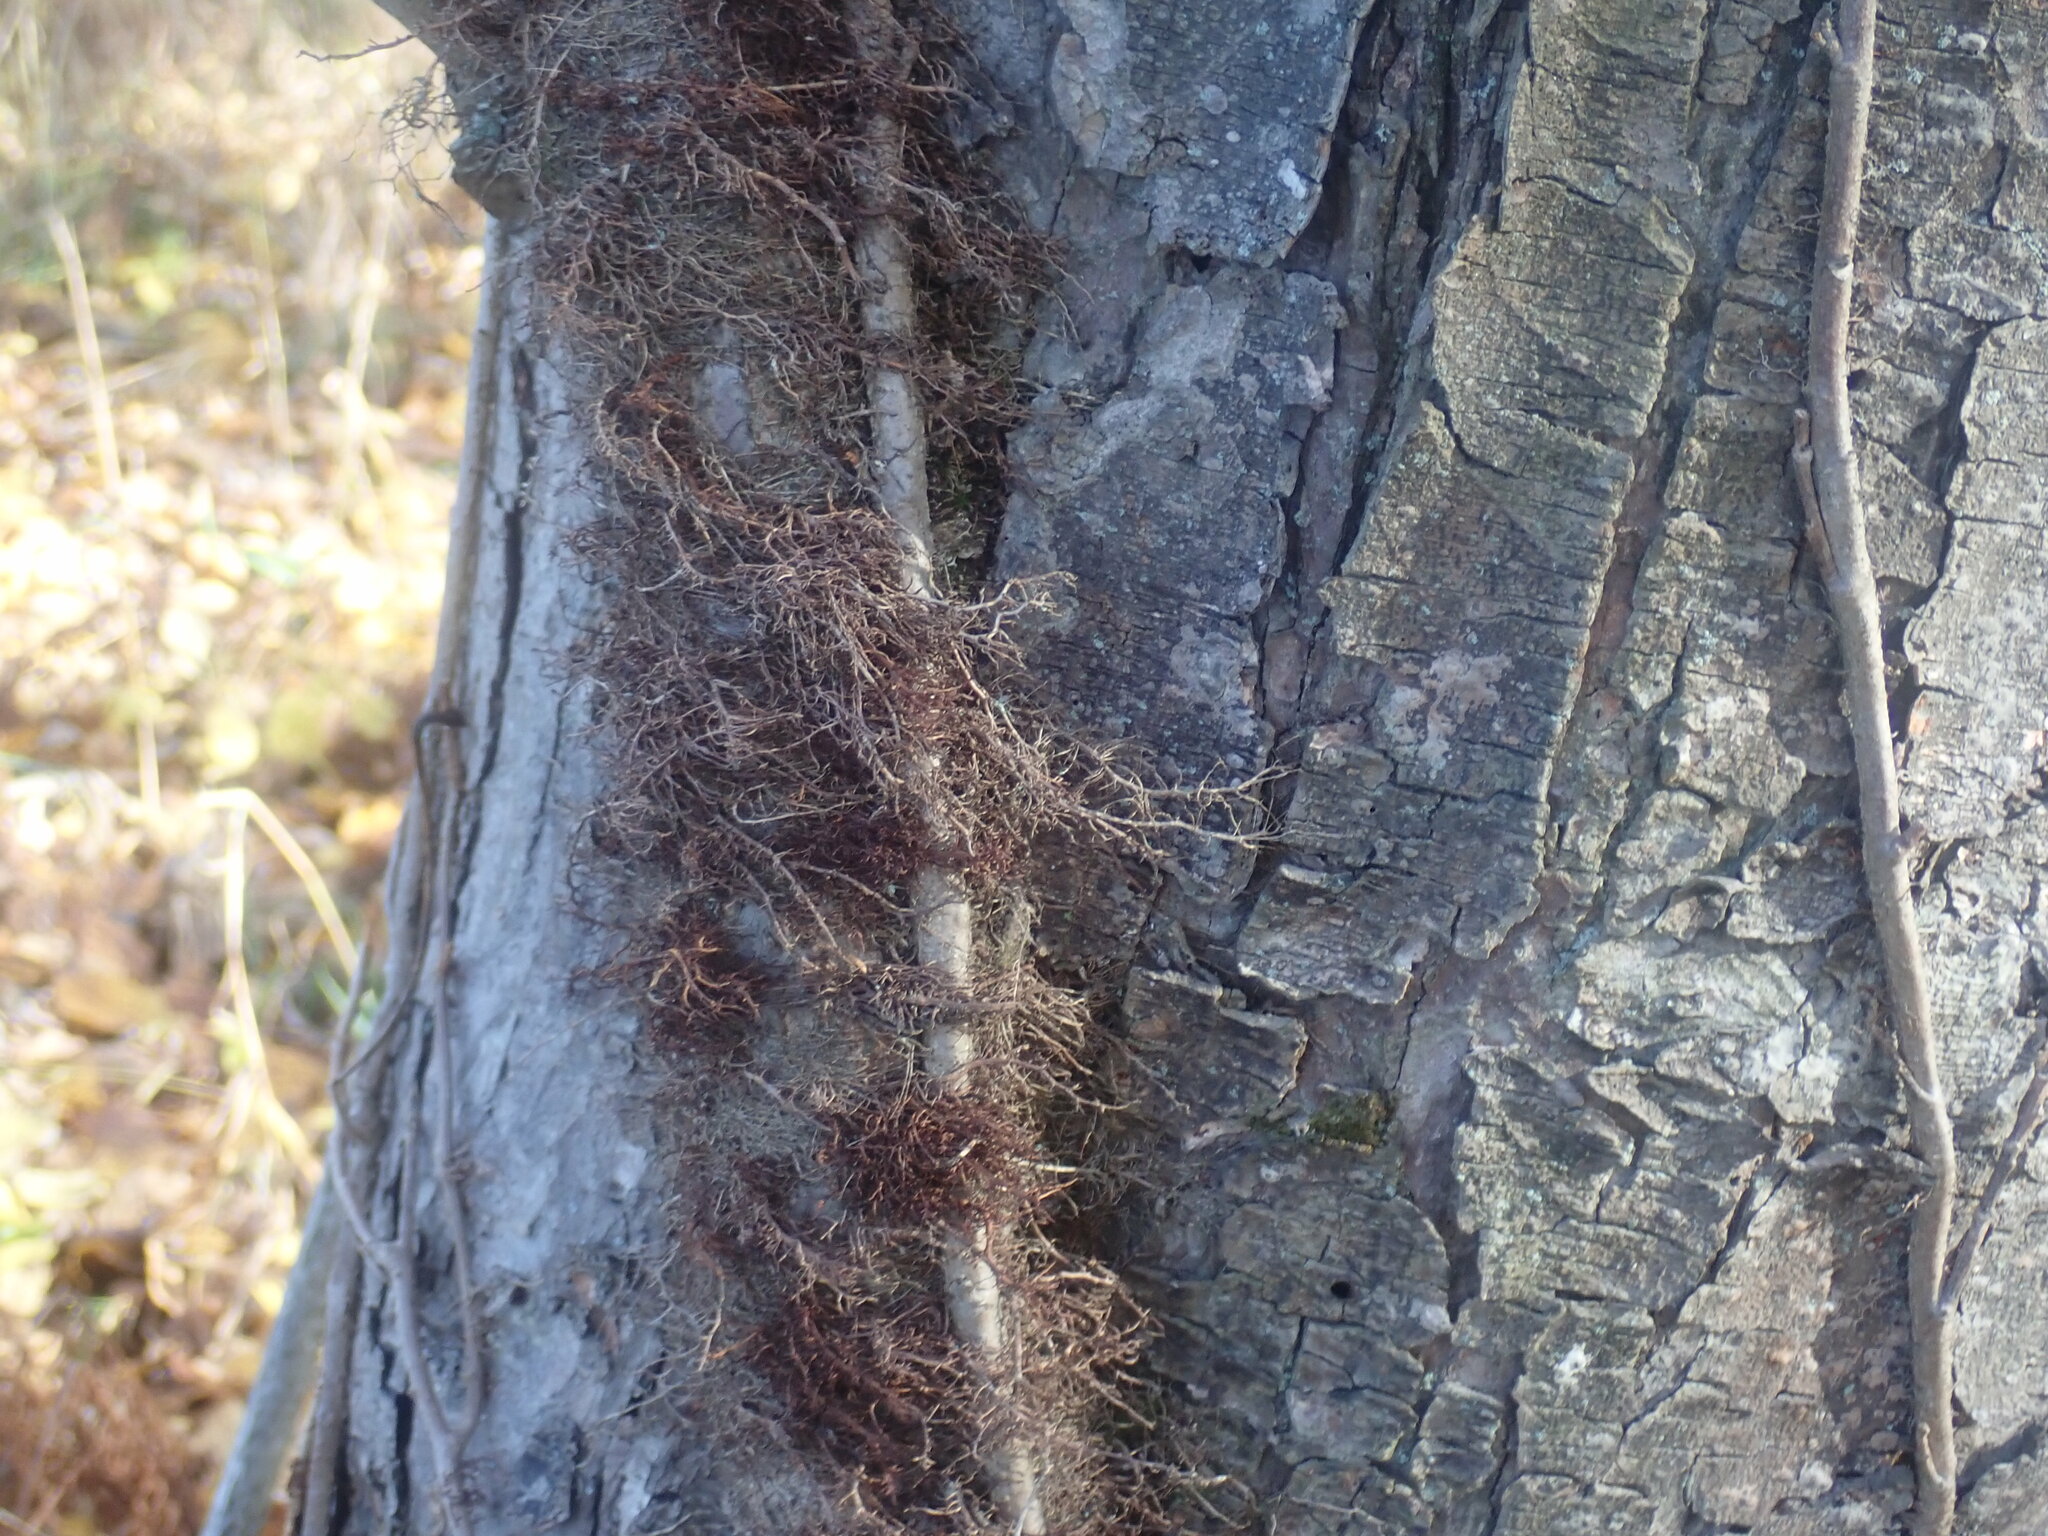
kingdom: Plantae
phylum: Tracheophyta
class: Magnoliopsida
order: Sapindales
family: Anacardiaceae
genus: Toxicodendron
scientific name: Toxicodendron radicans
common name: Poison ivy
